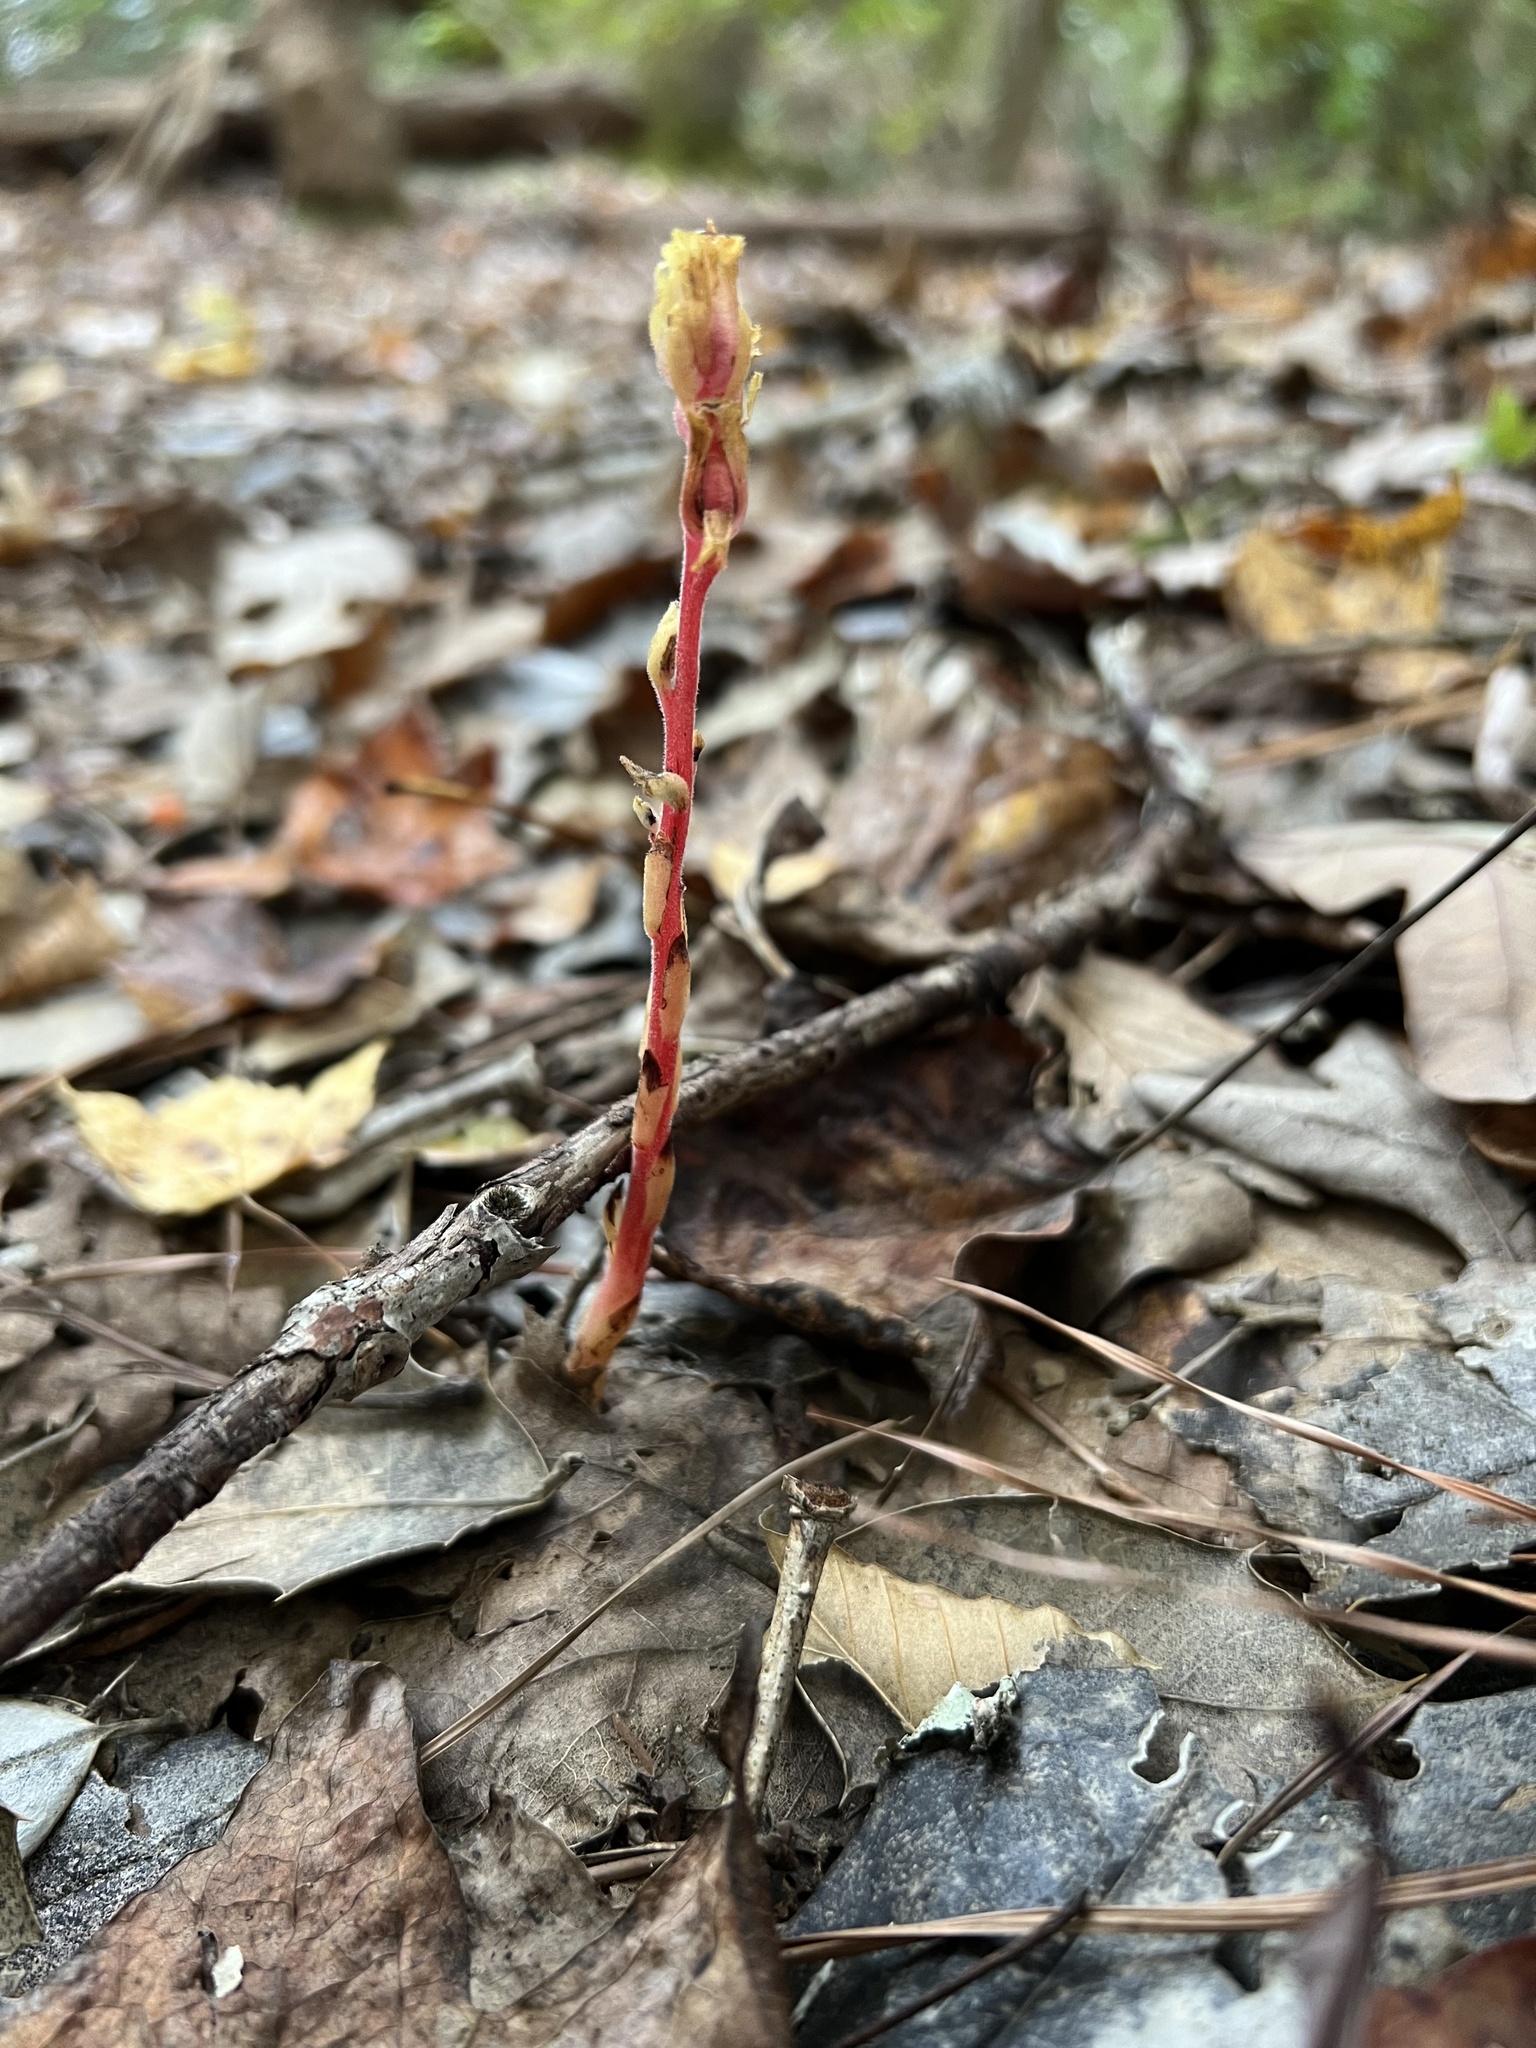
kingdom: Plantae
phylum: Tracheophyta
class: Magnoliopsida
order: Ericales
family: Ericaceae
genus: Hypopitys
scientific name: Hypopitys monotropa
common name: Yellow bird's-nest
